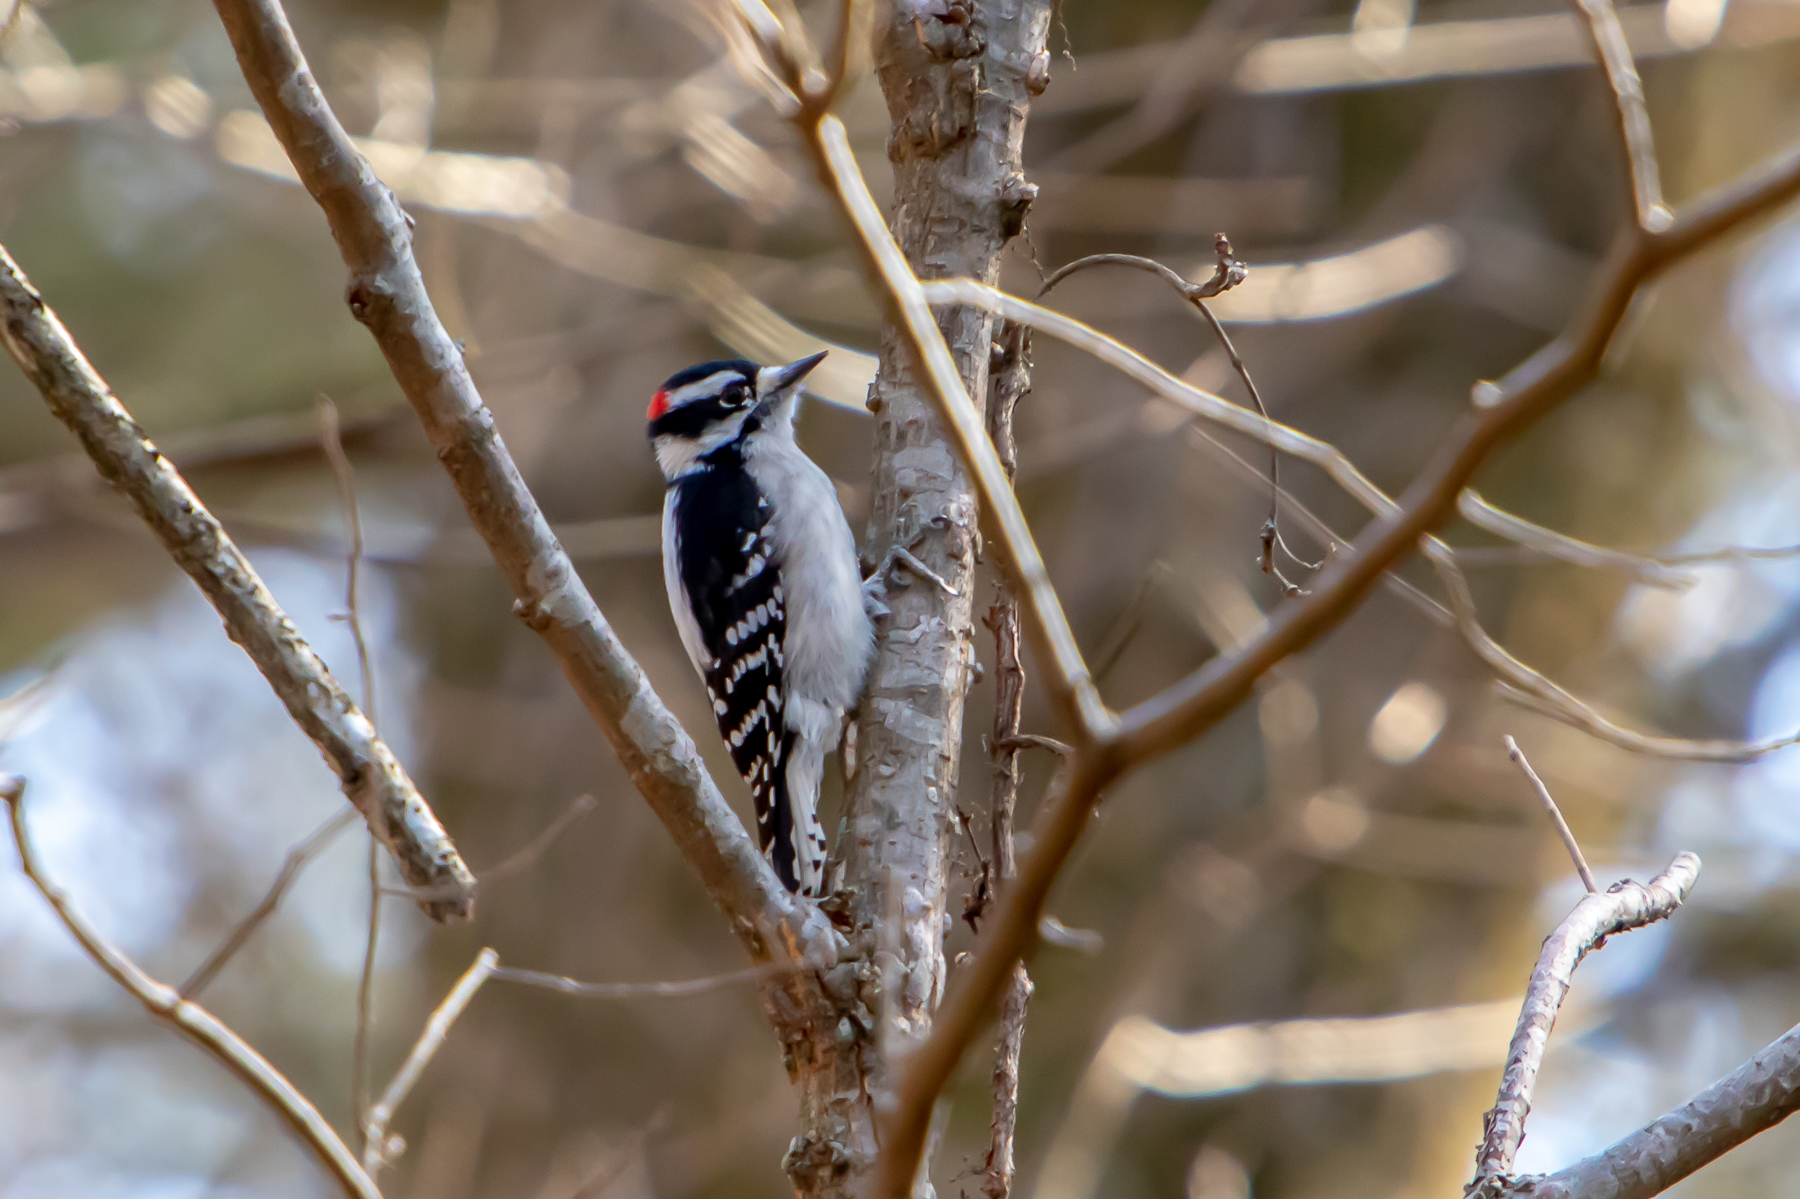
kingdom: Animalia
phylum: Chordata
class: Aves
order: Piciformes
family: Picidae
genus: Dryobates
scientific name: Dryobates pubescens
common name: Downy woodpecker
